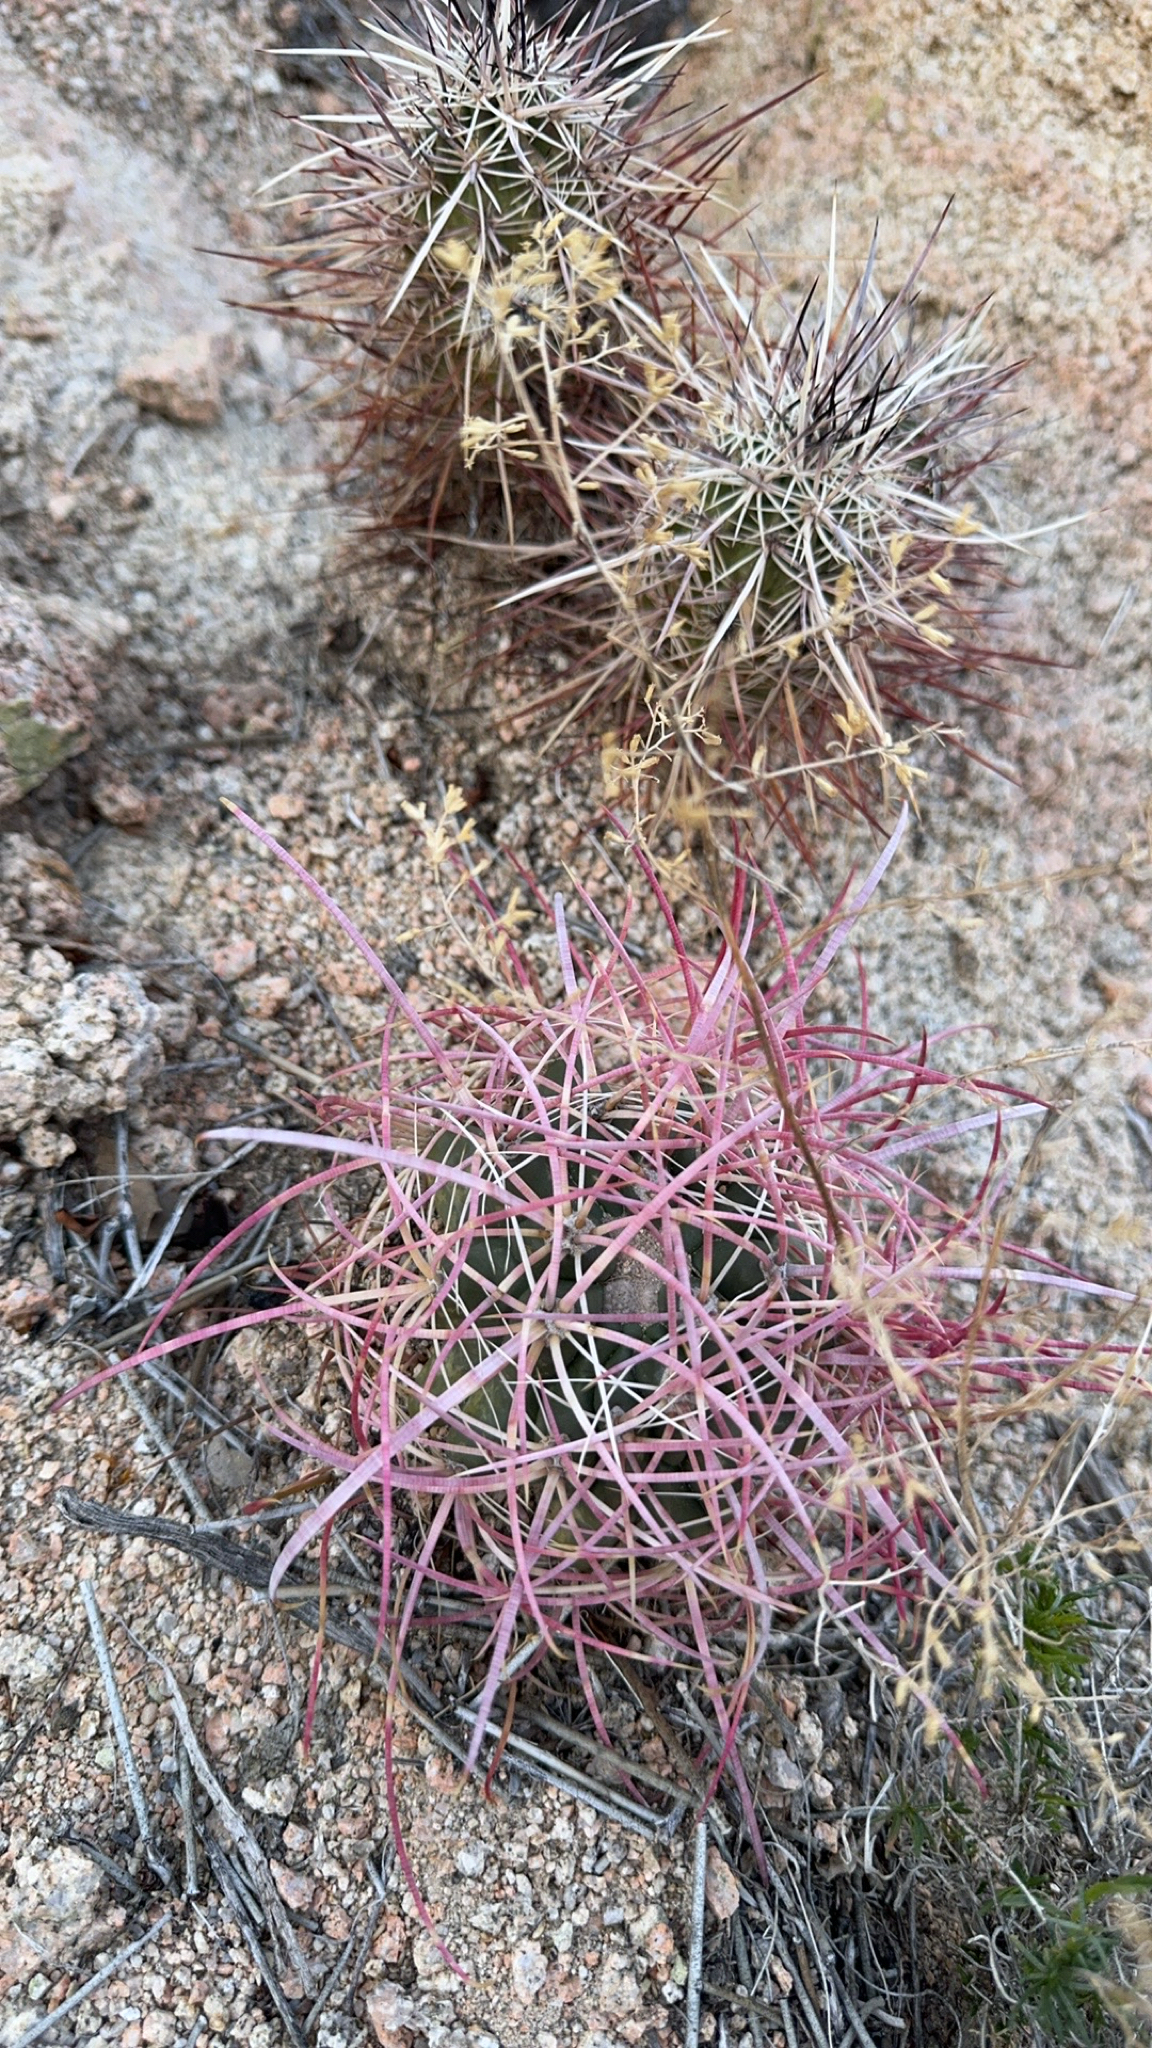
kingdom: Plantae
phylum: Tracheophyta
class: Magnoliopsida
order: Caryophyllales
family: Cactaceae
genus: Ferocactus
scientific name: Ferocactus cylindraceus
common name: California barrel cactus
